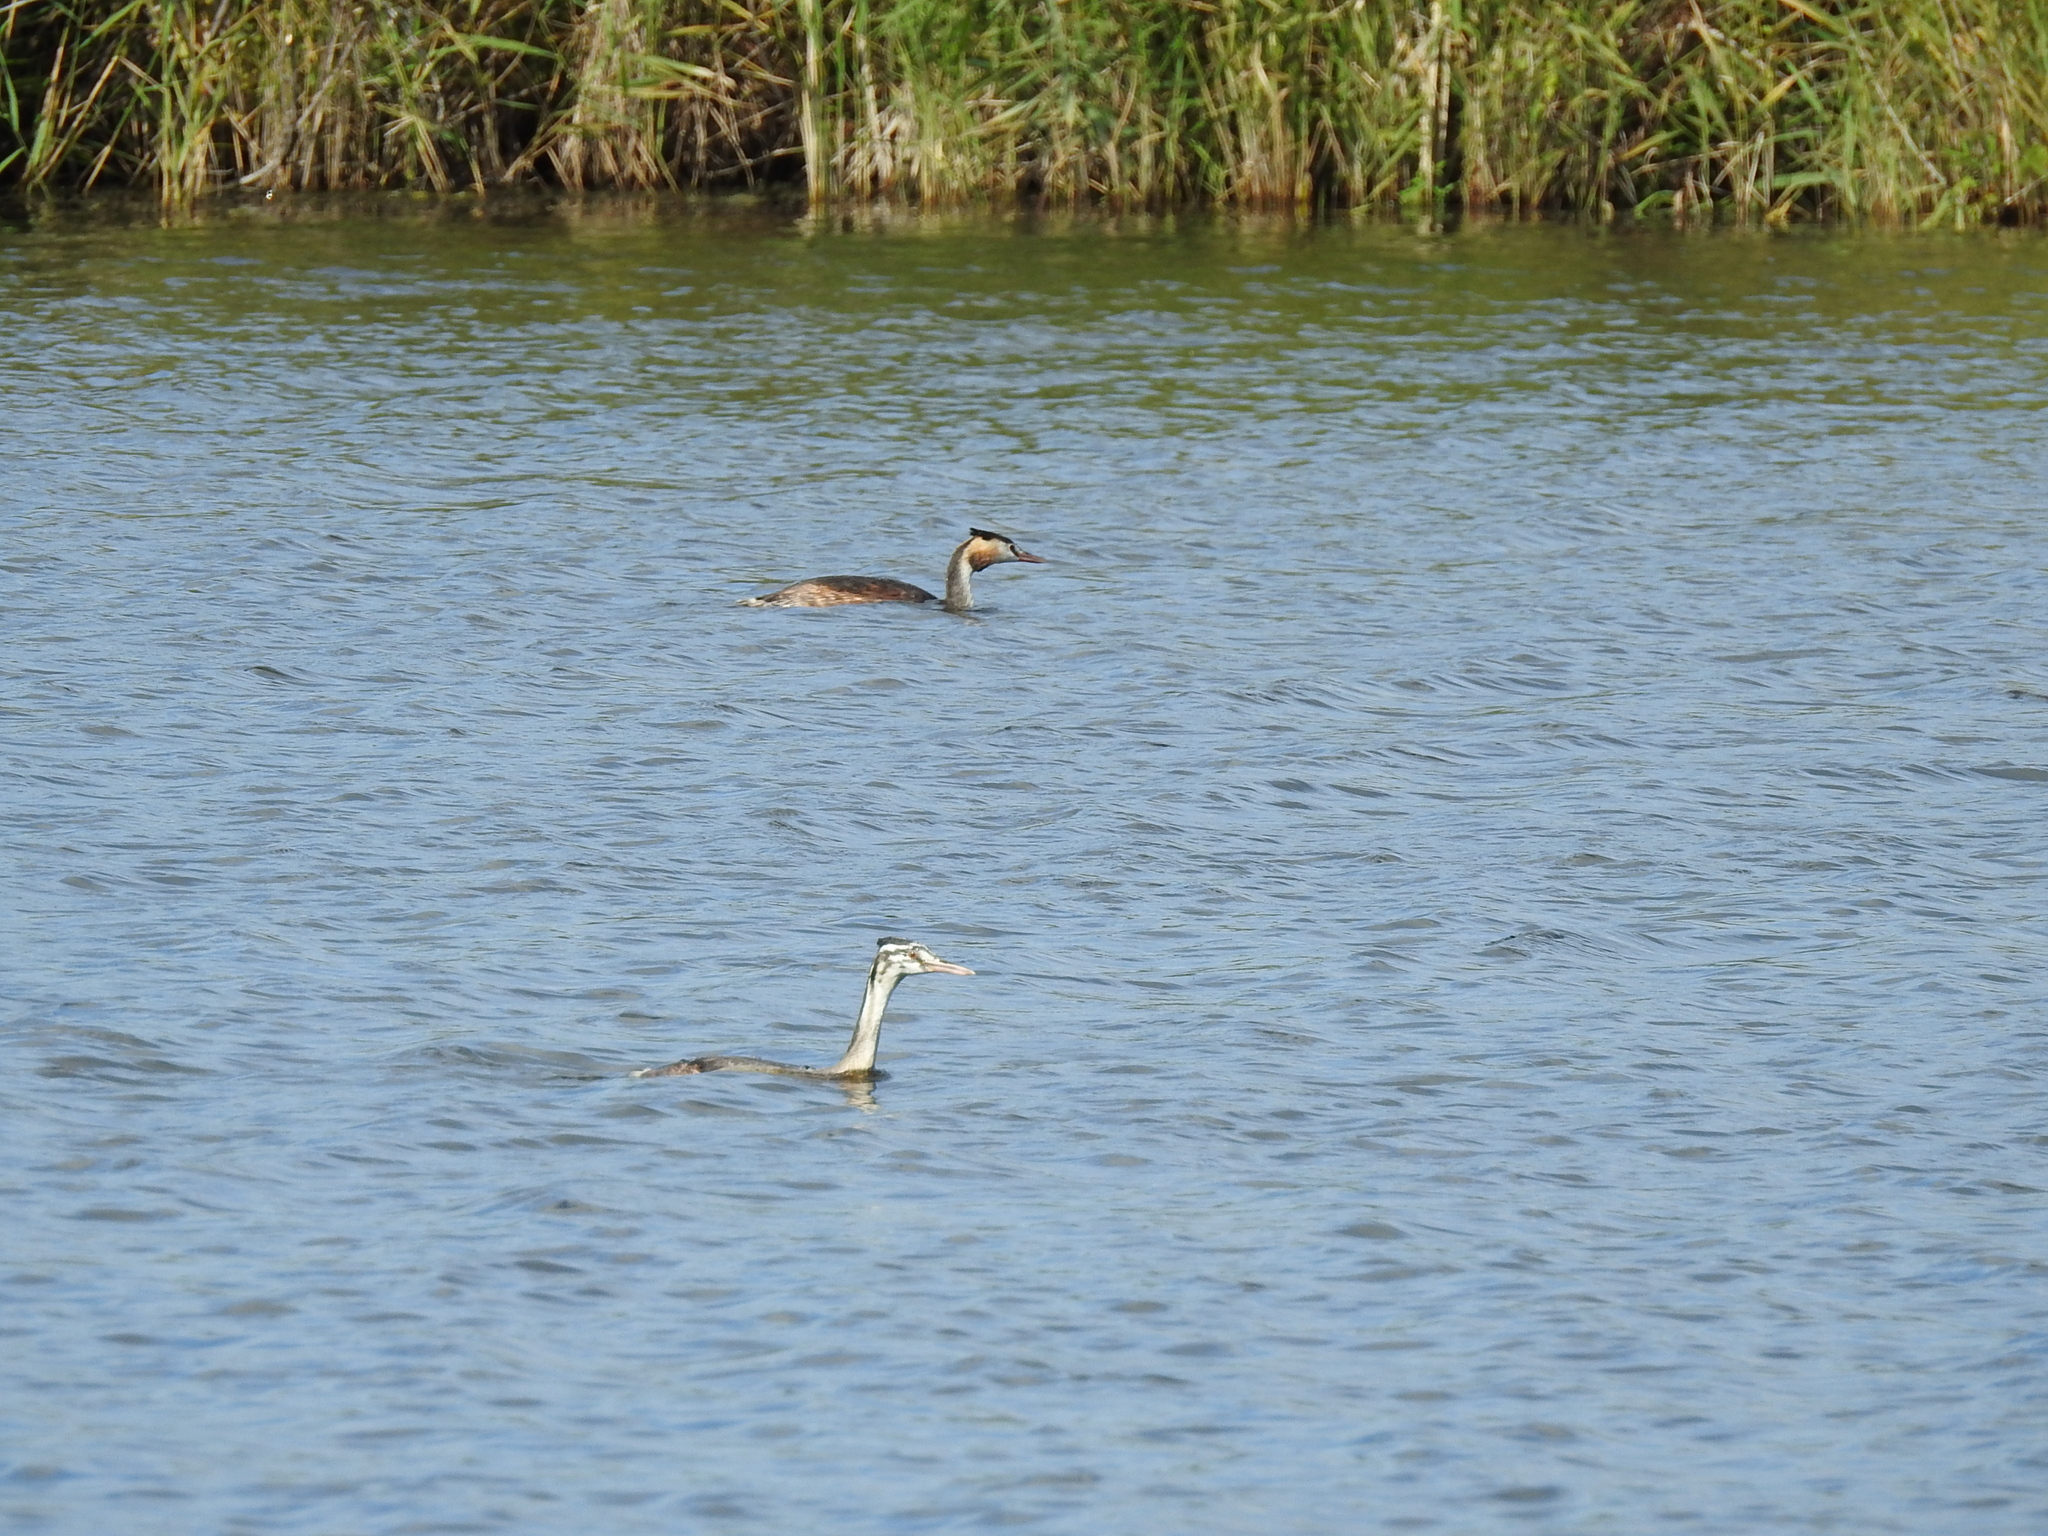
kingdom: Animalia
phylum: Chordata
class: Aves
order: Podicipediformes
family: Podicipedidae
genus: Podiceps
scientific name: Podiceps cristatus
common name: Great crested grebe
